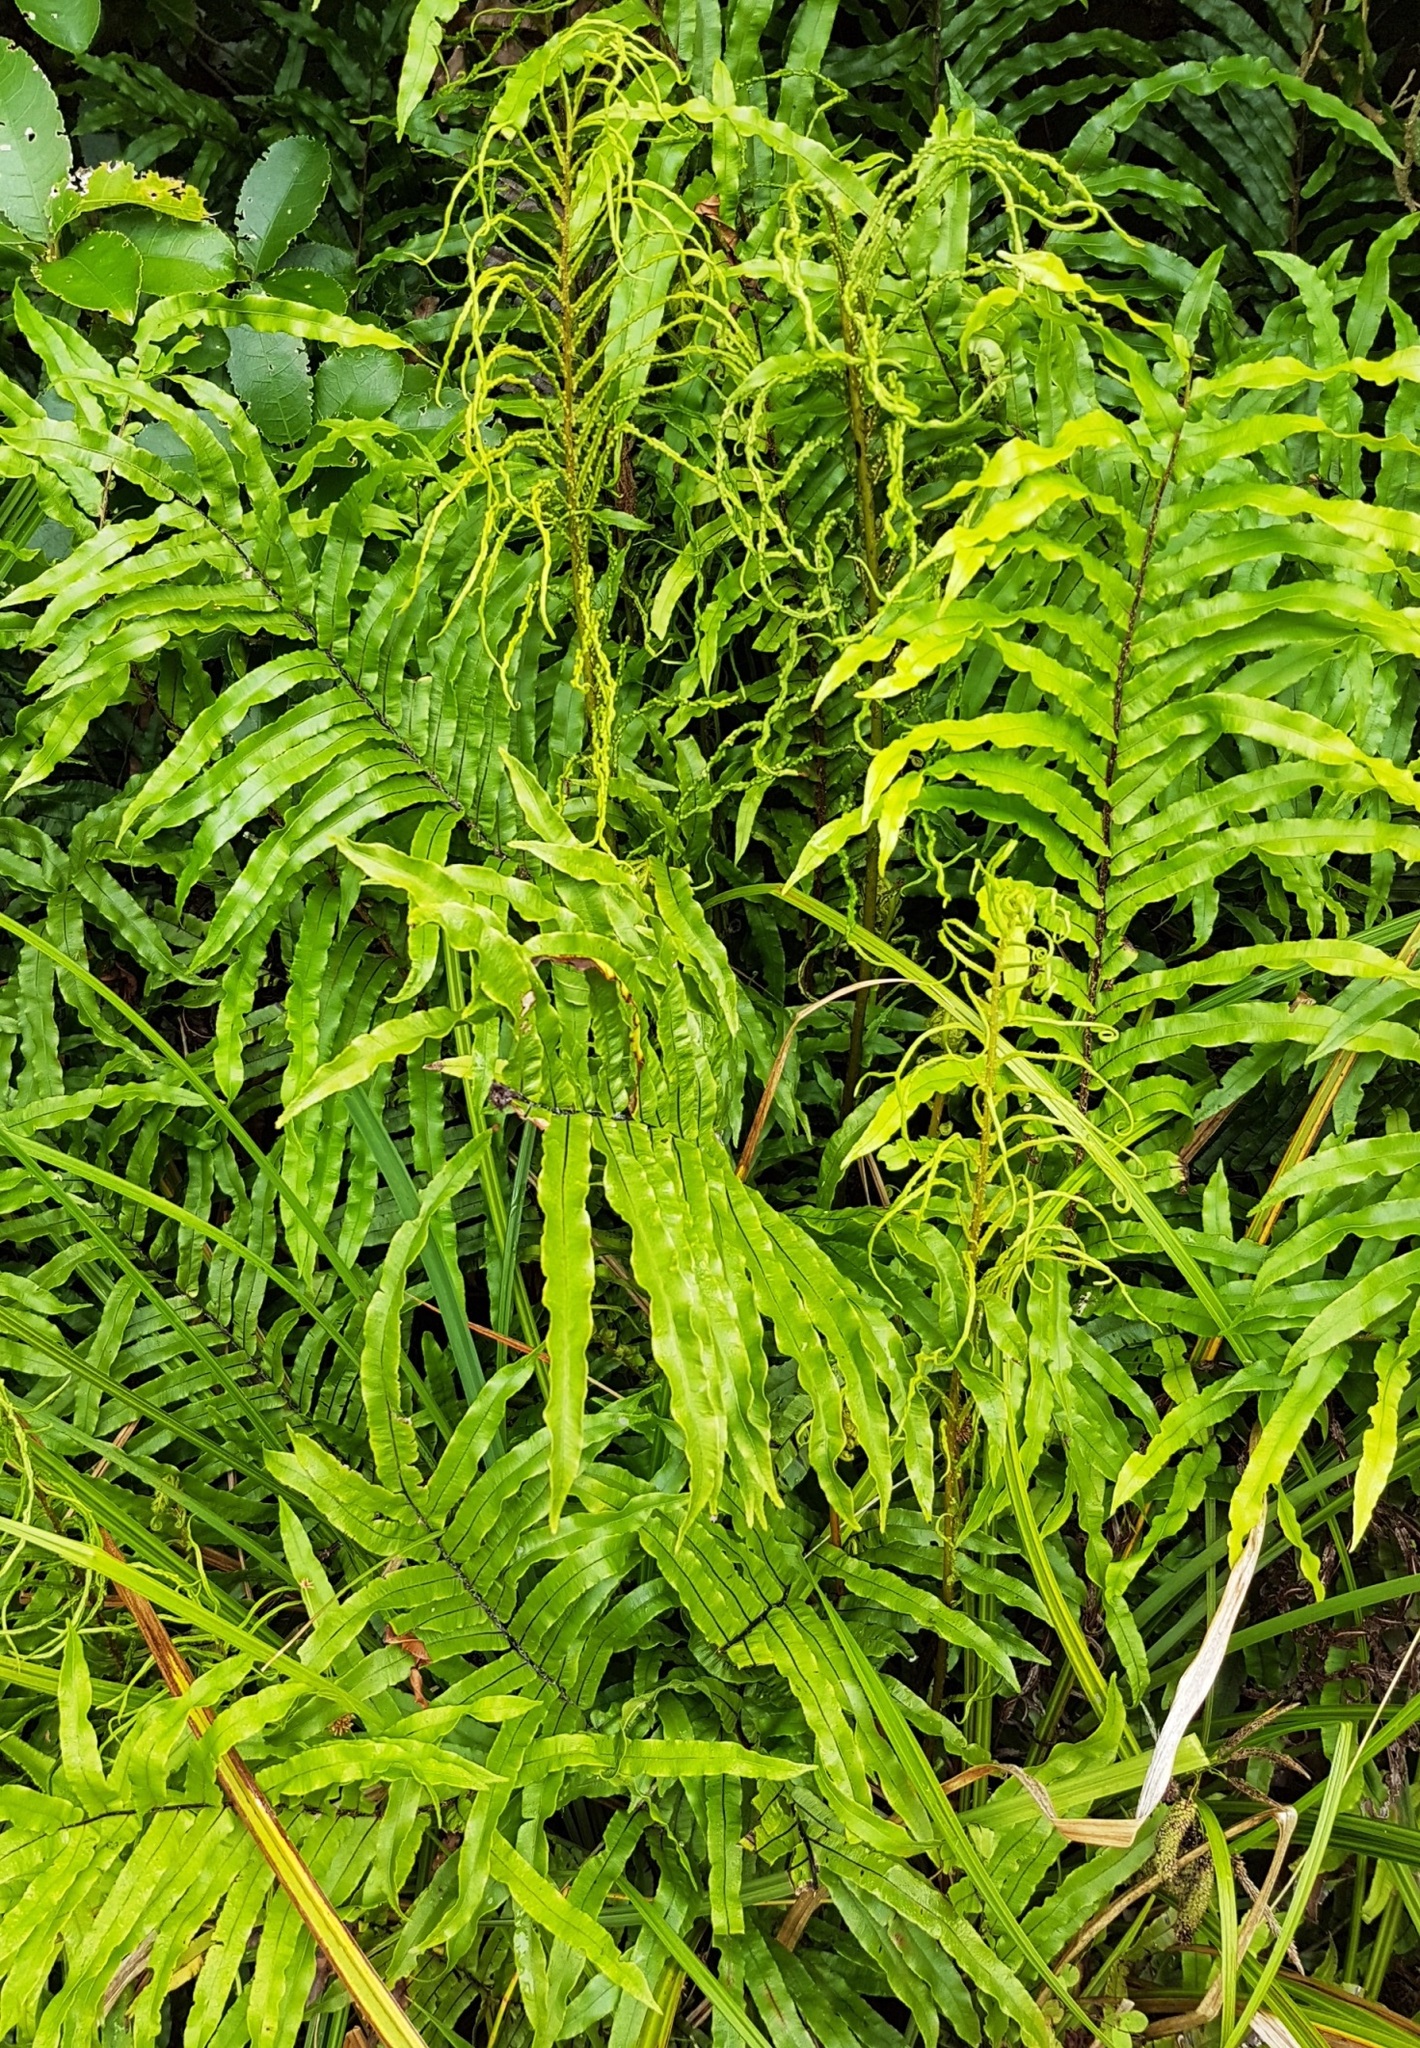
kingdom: Plantae
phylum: Tracheophyta
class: Polypodiopsida
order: Polypodiales
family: Blechnaceae
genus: Parablechnum
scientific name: Parablechnum novae-zelandiae
